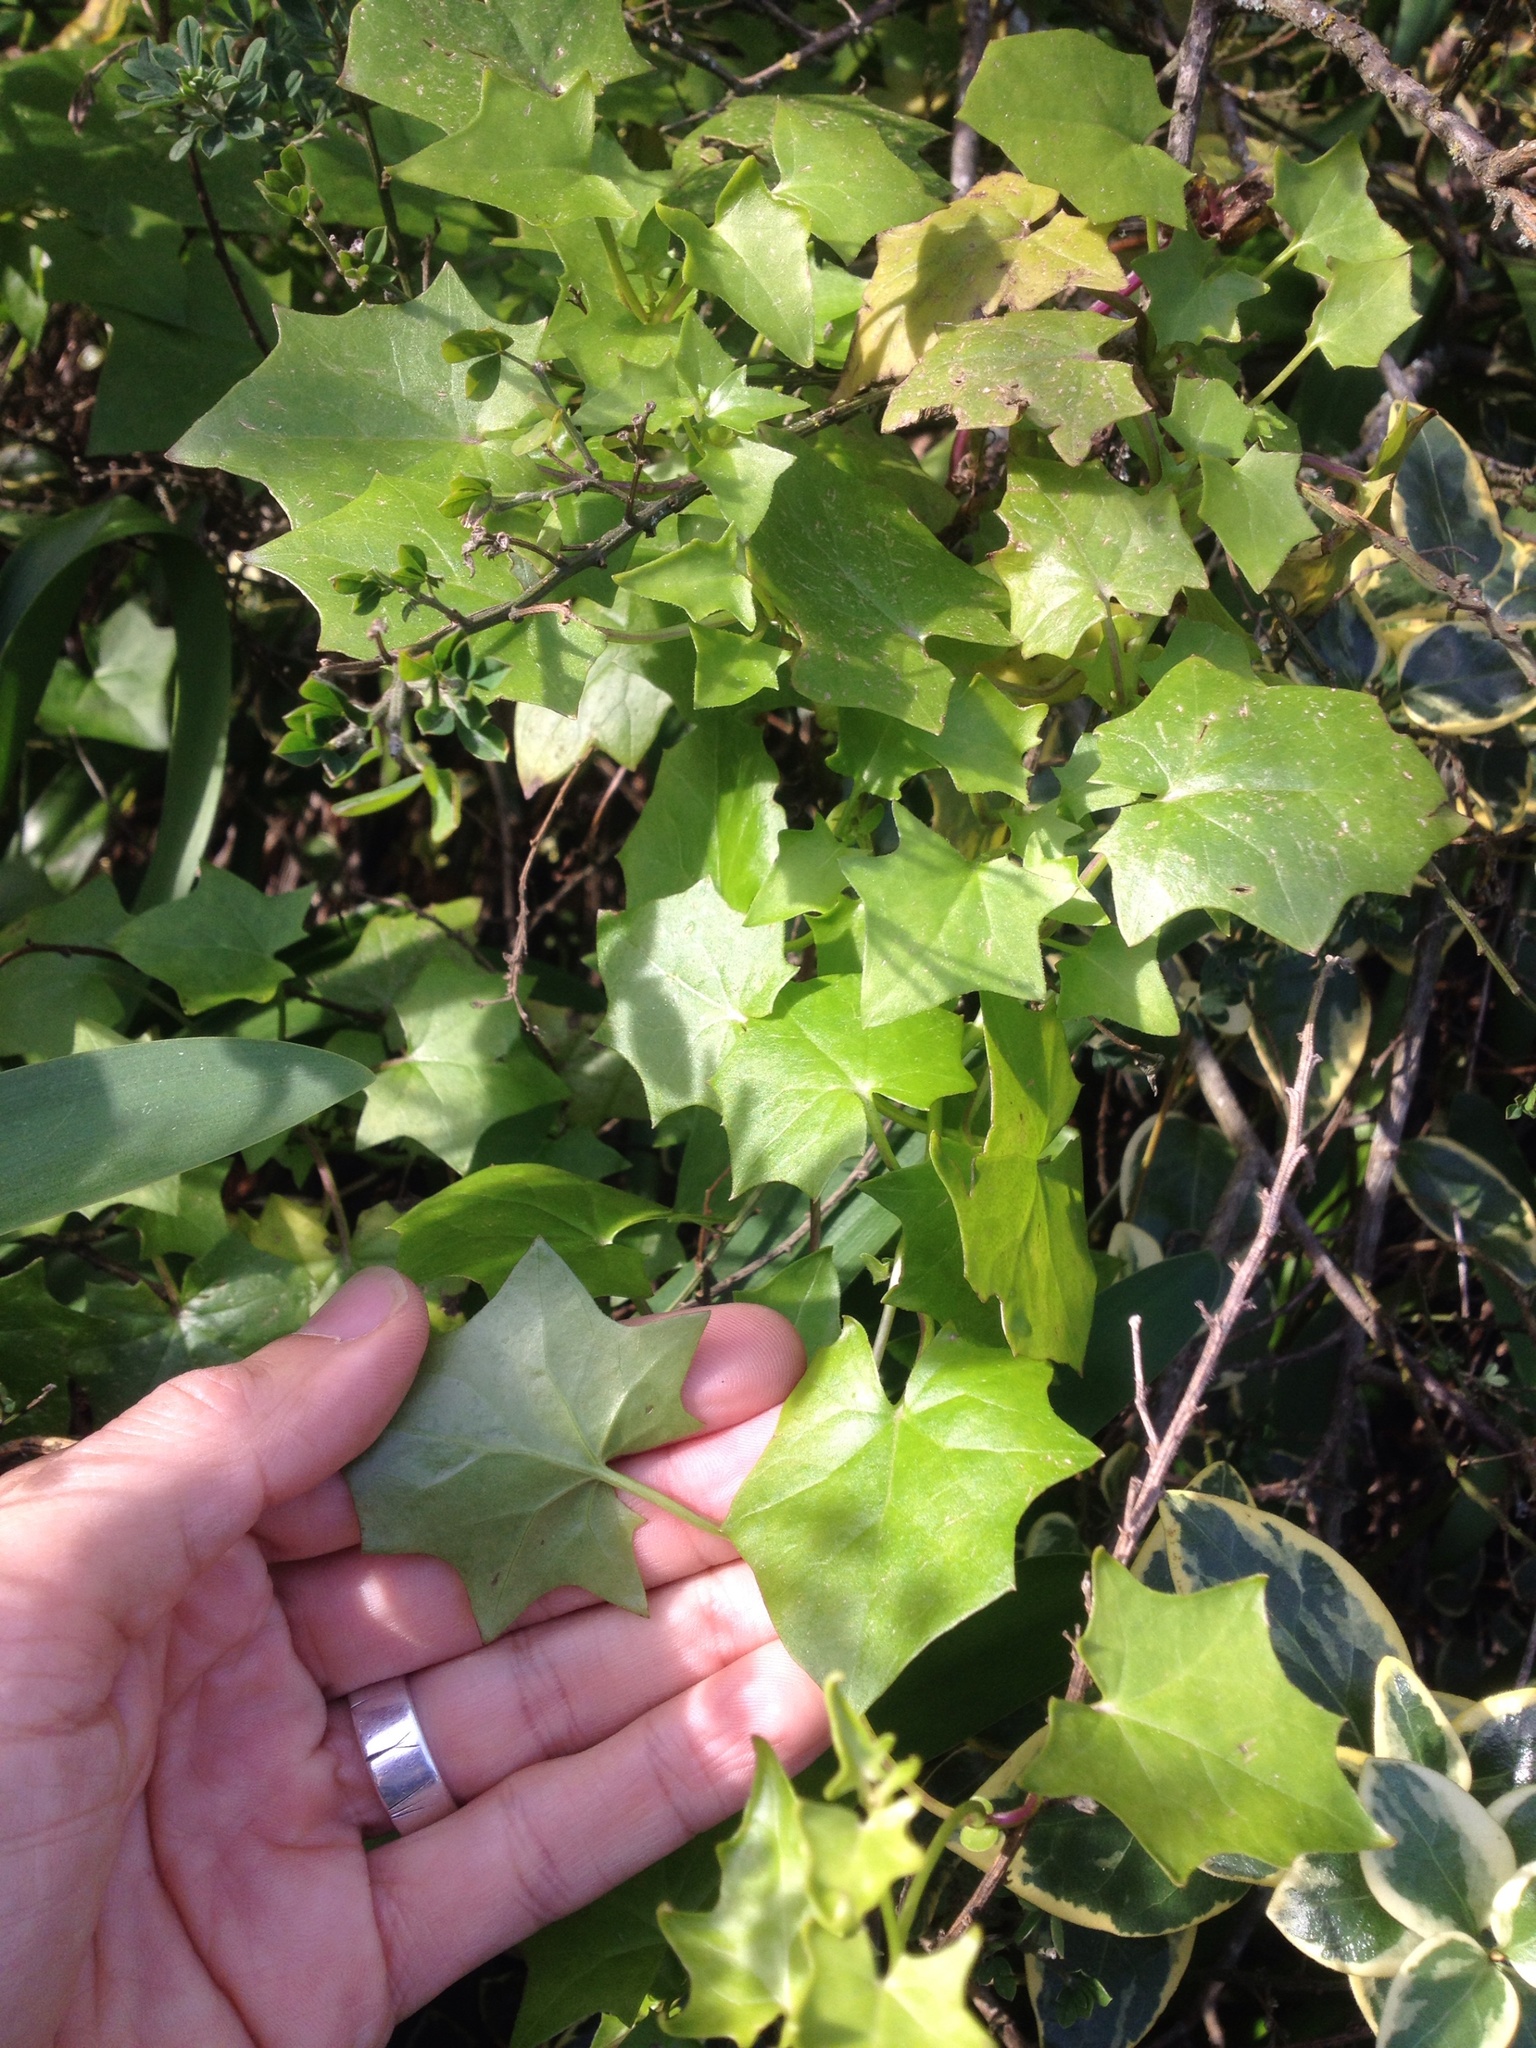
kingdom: Plantae
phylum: Tracheophyta
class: Magnoliopsida
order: Asterales
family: Asteraceae
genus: Delairea
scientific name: Delairea odorata
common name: Cape-ivy
